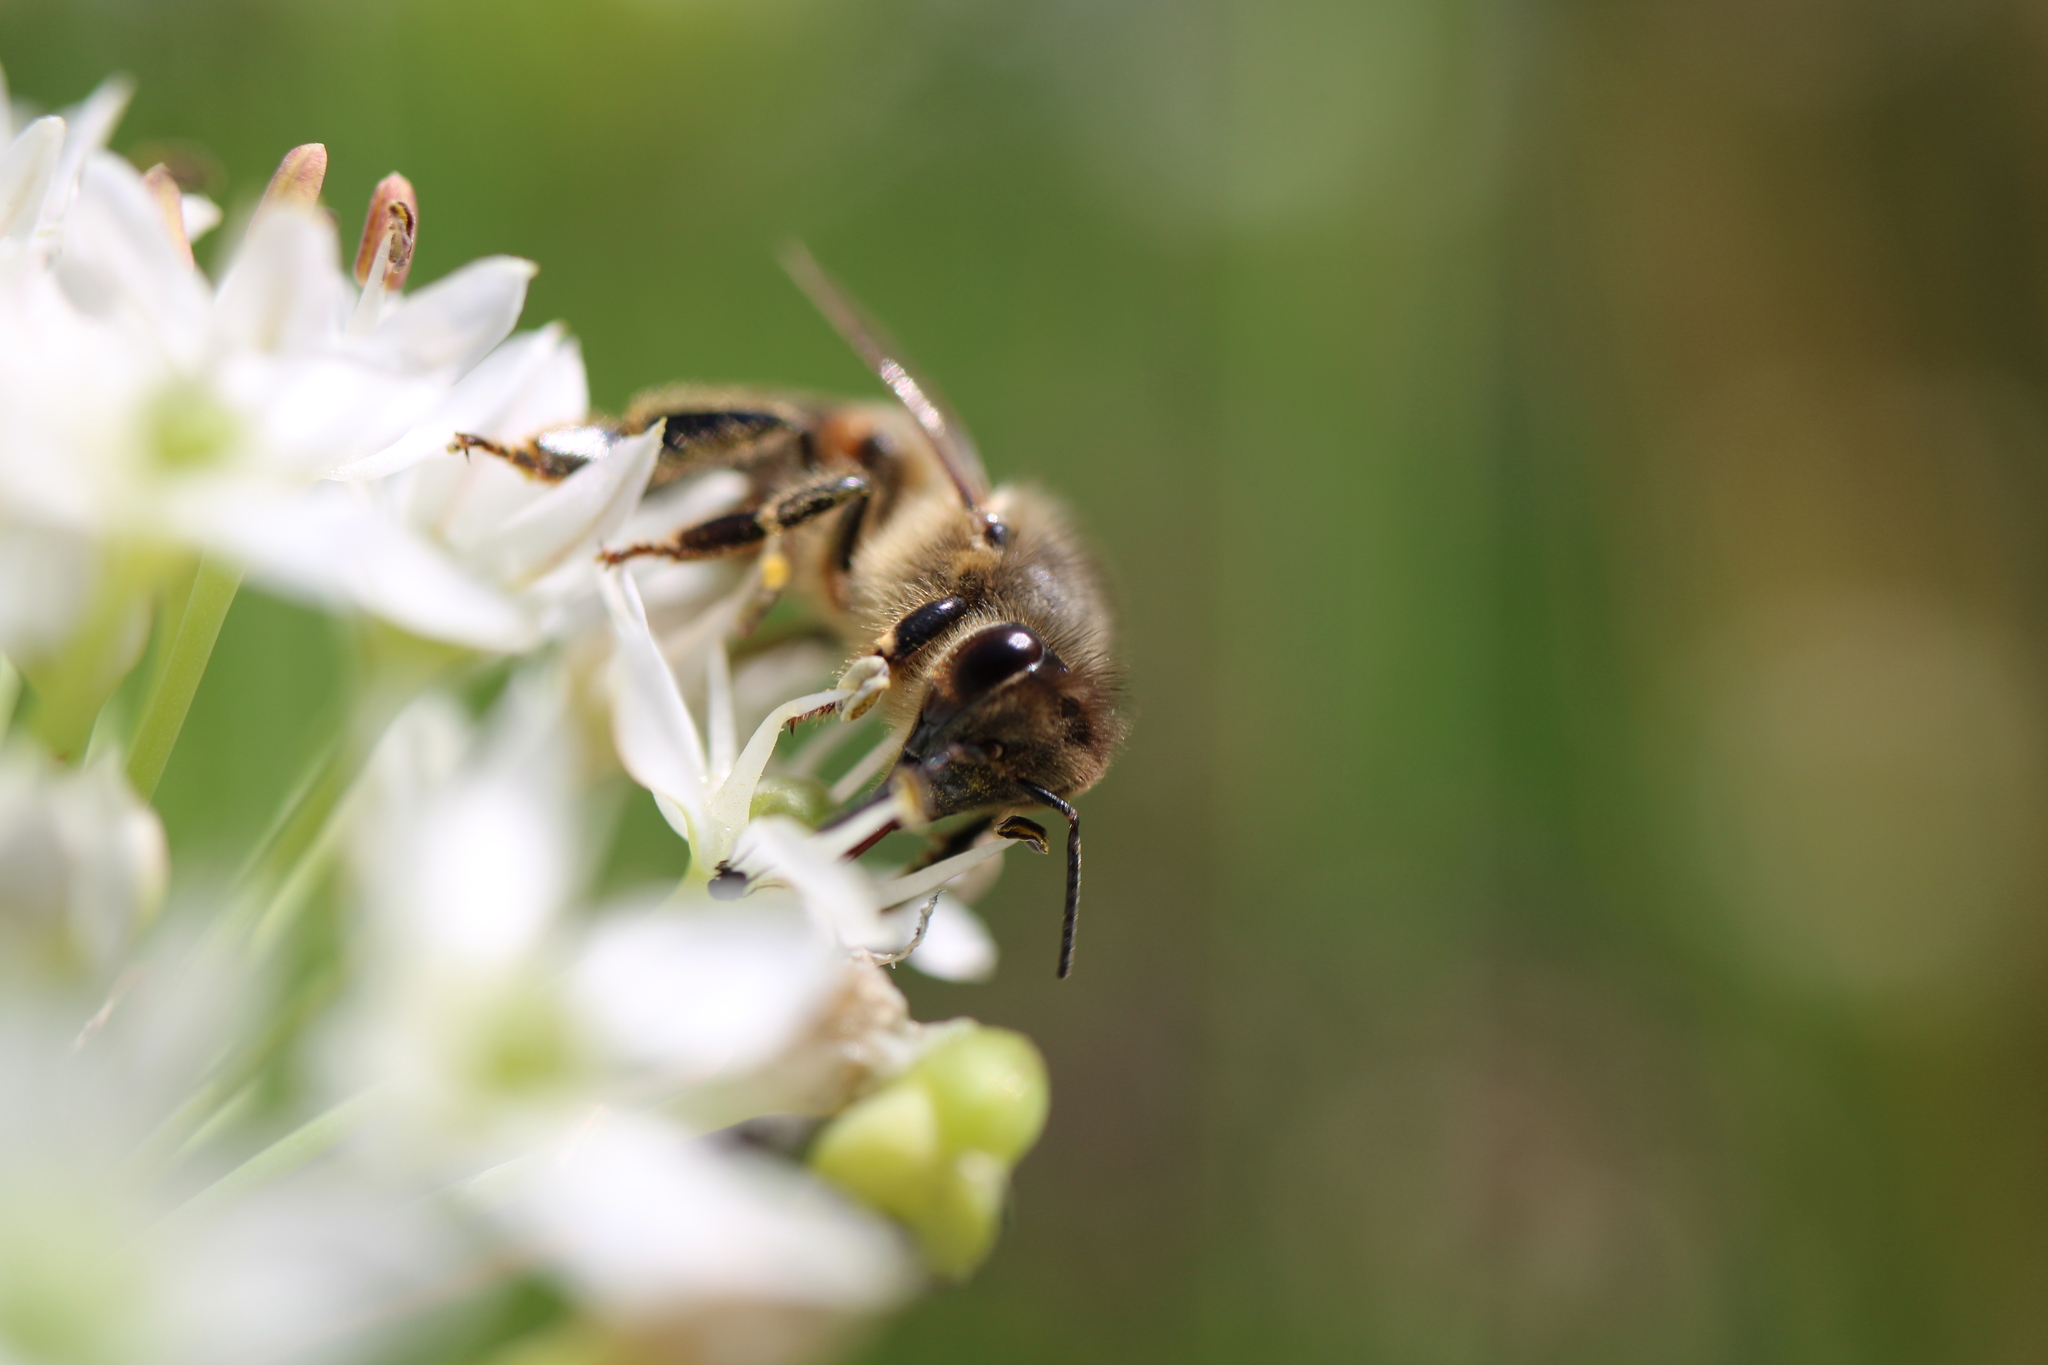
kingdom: Animalia
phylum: Arthropoda
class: Insecta
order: Hymenoptera
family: Apidae
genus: Apis
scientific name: Apis mellifera
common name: Honey bee
